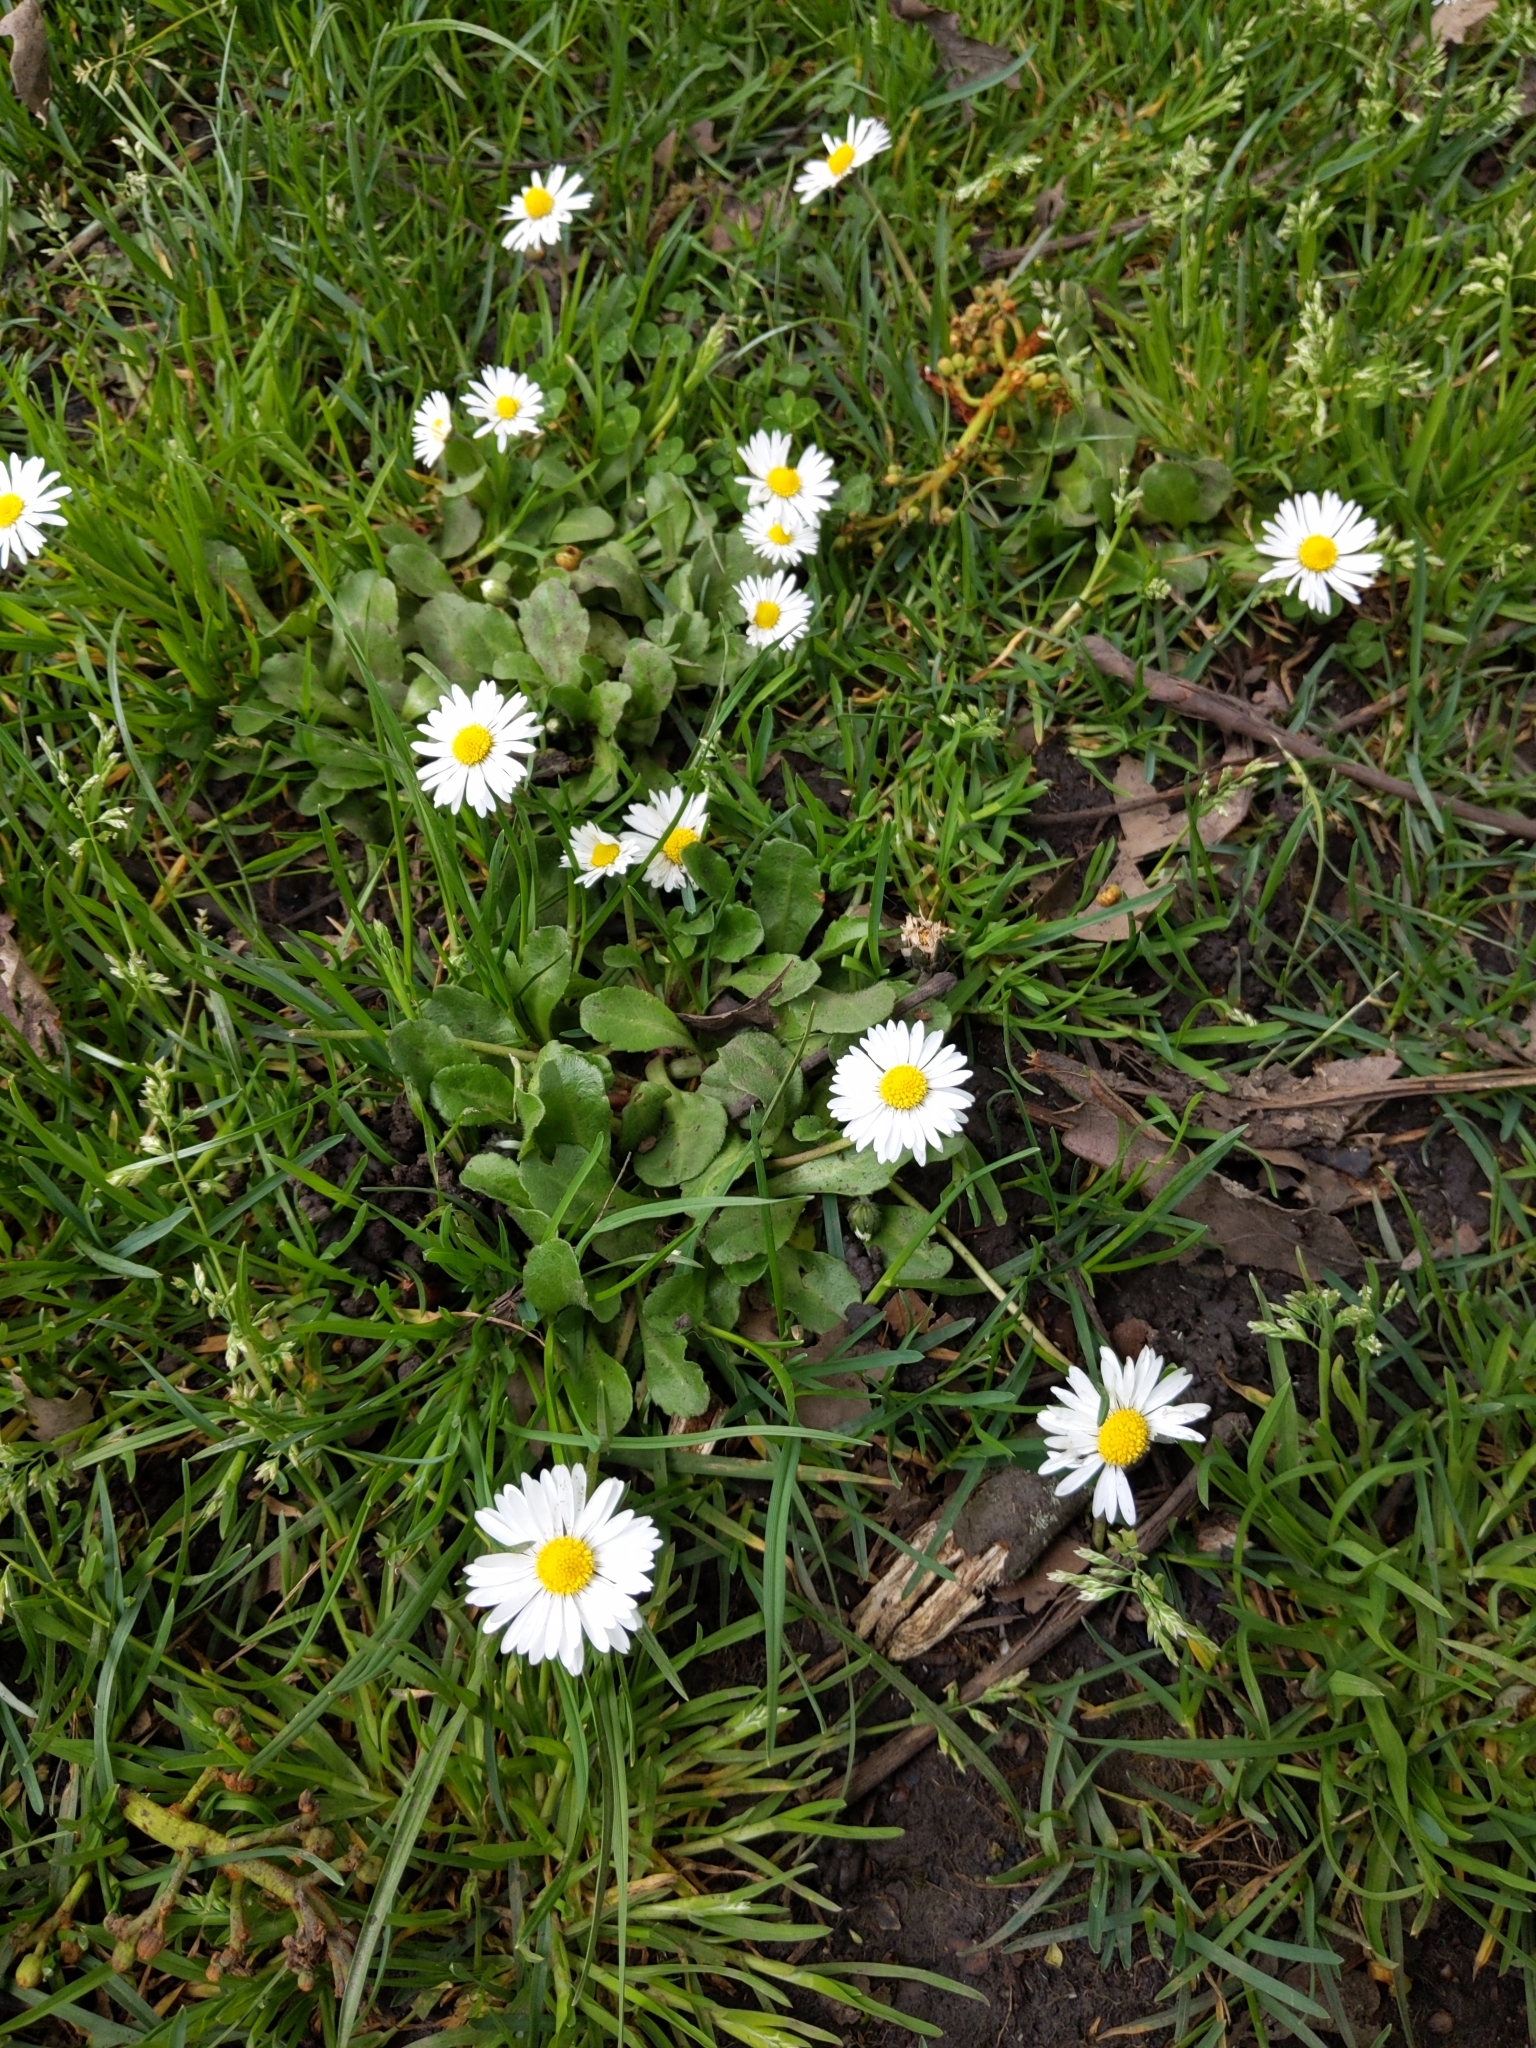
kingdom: Plantae
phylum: Tracheophyta
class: Magnoliopsida
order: Asterales
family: Asteraceae
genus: Bellis
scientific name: Bellis perennis
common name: Lawndaisy
